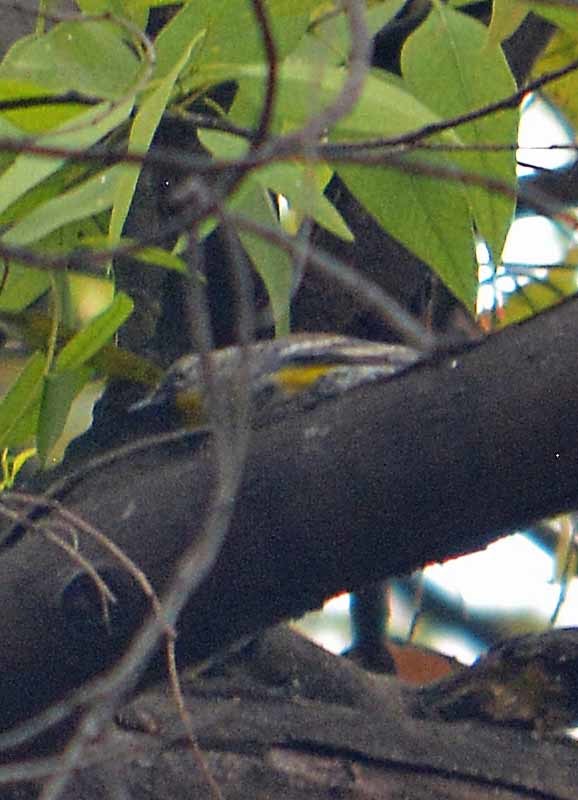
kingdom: Animalia
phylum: Chordata
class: Aves
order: Passeriformes
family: Parulidae
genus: Setophaga
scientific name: Setophaga auduboni
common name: Audubon's warbler
